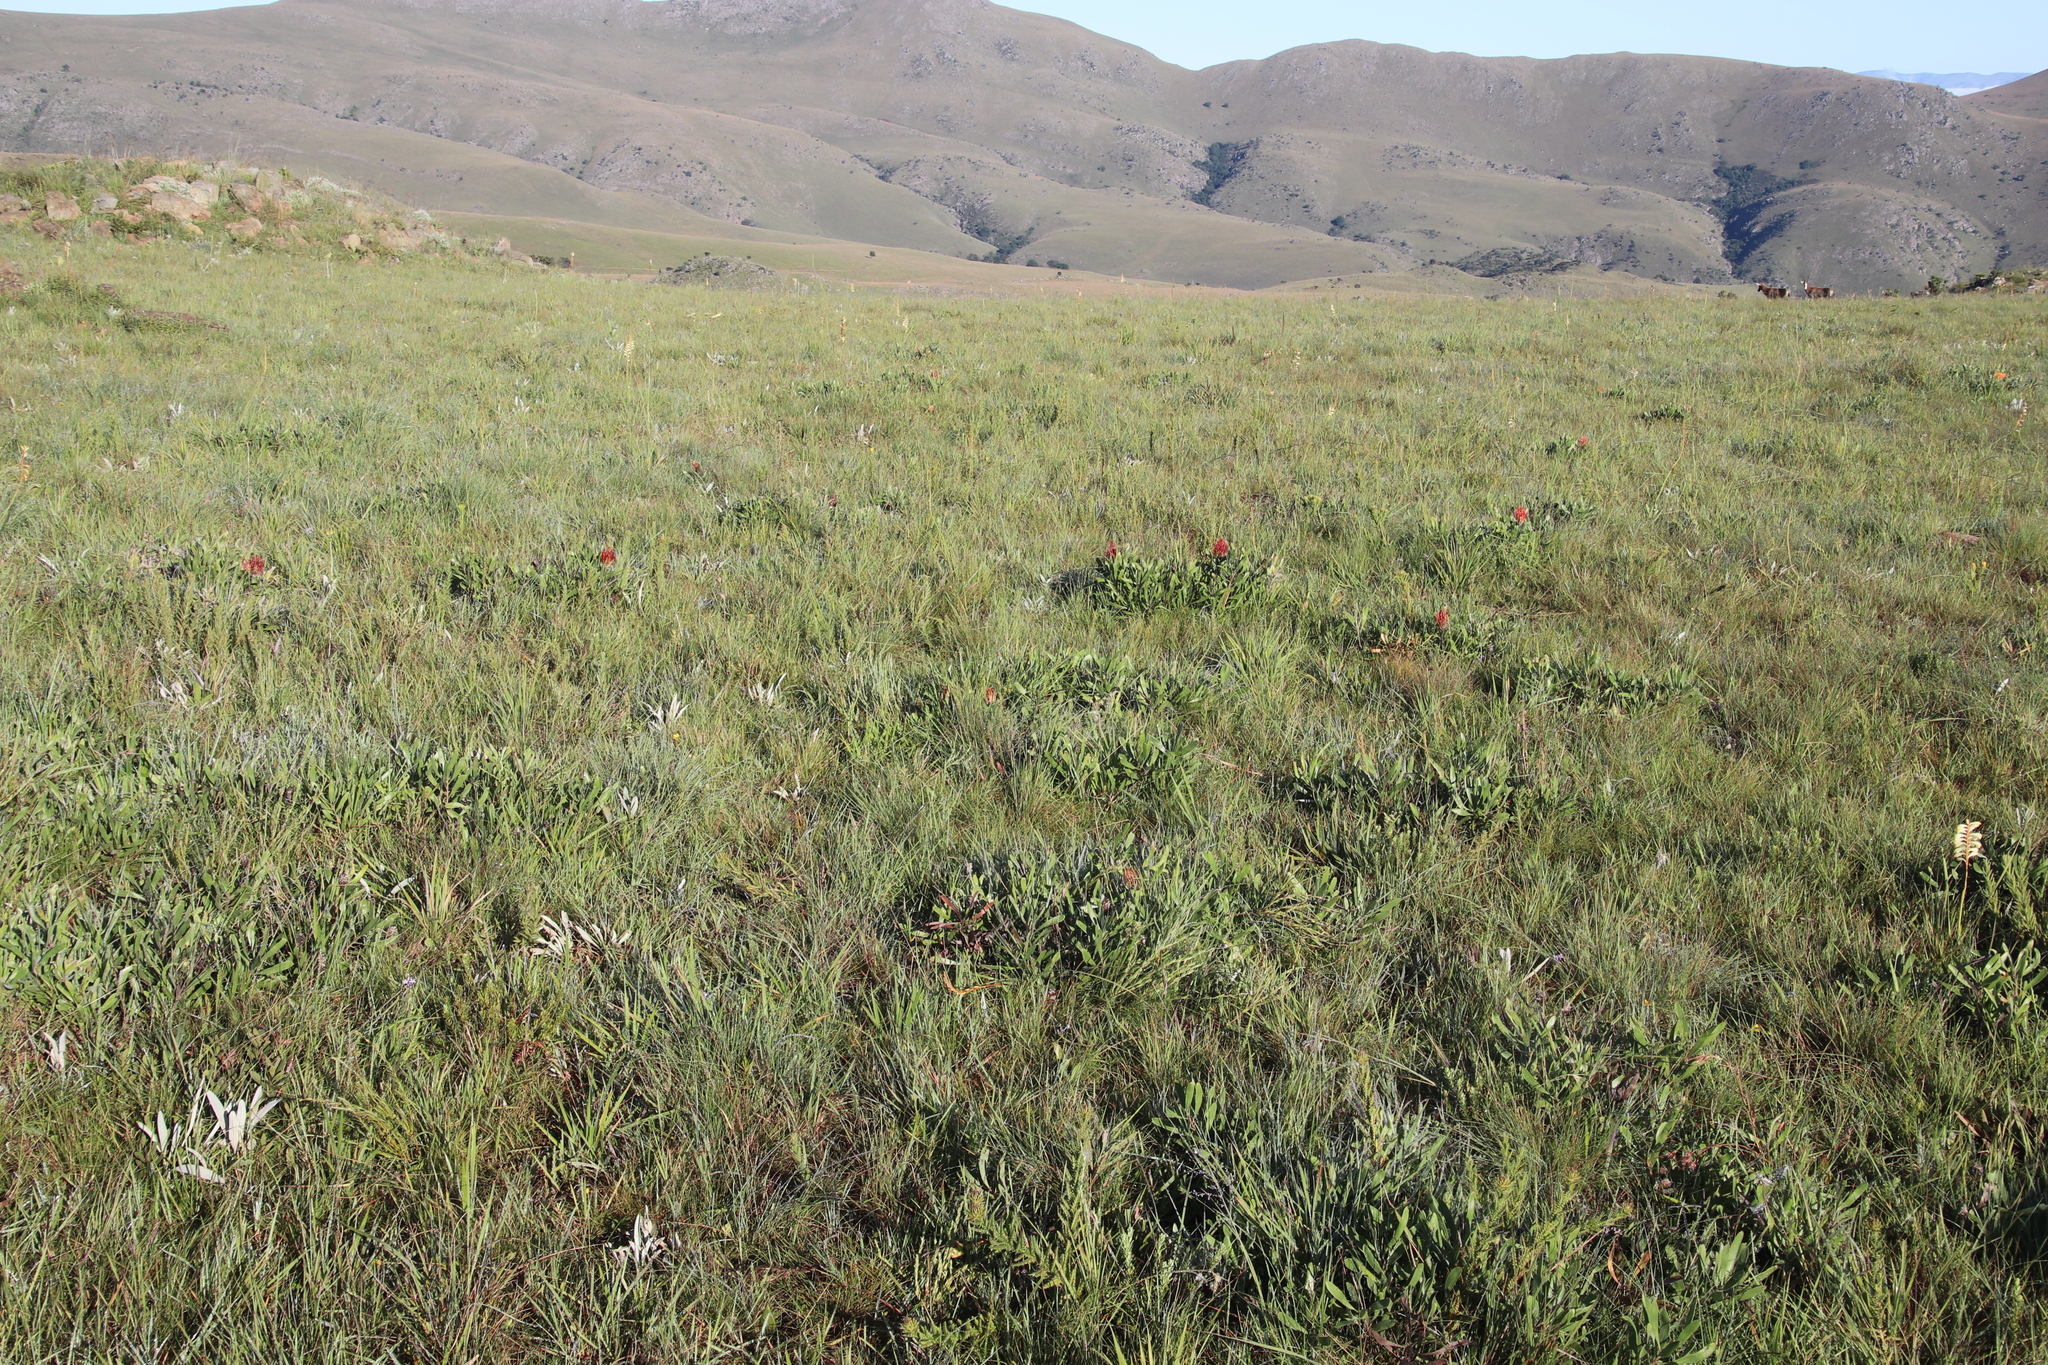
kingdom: Plantae
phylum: Tracheophyta
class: Magnoliopsida
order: Proteales
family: Proteaceae
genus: Leucospermum
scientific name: Leucospermum gerrardii
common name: Soapstone pincushion
